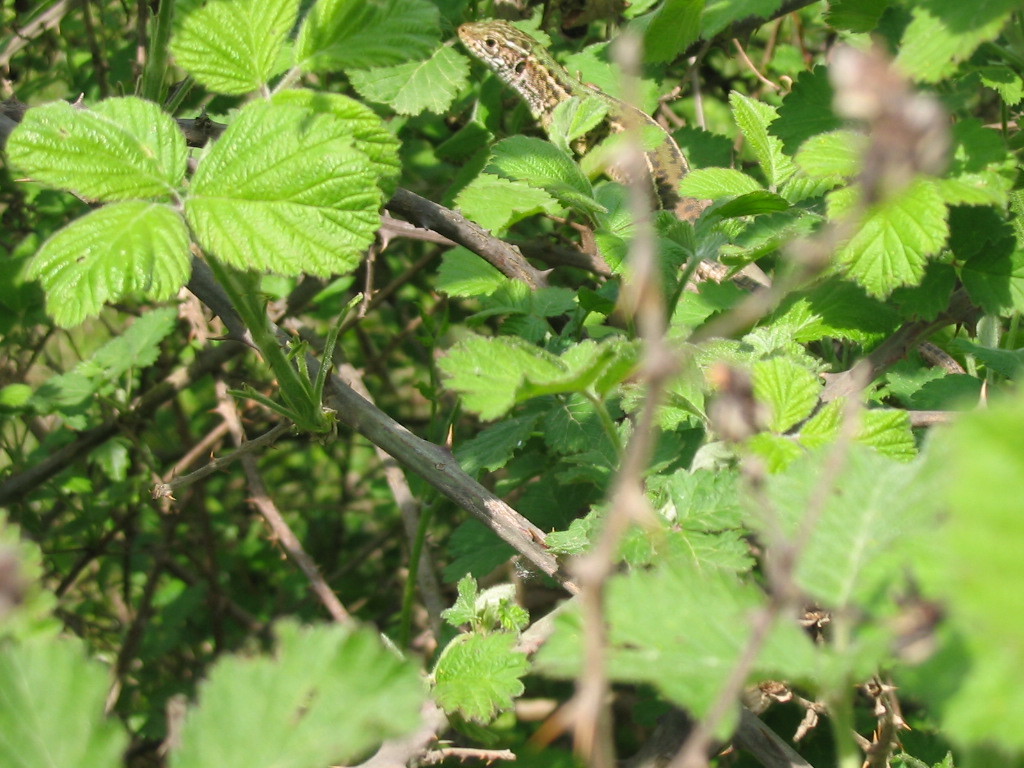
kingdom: Animalia
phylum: Chordata
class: Squamata
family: Lacertidae
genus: Lacerta
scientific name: Lacerta viridis
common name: European green lizard
